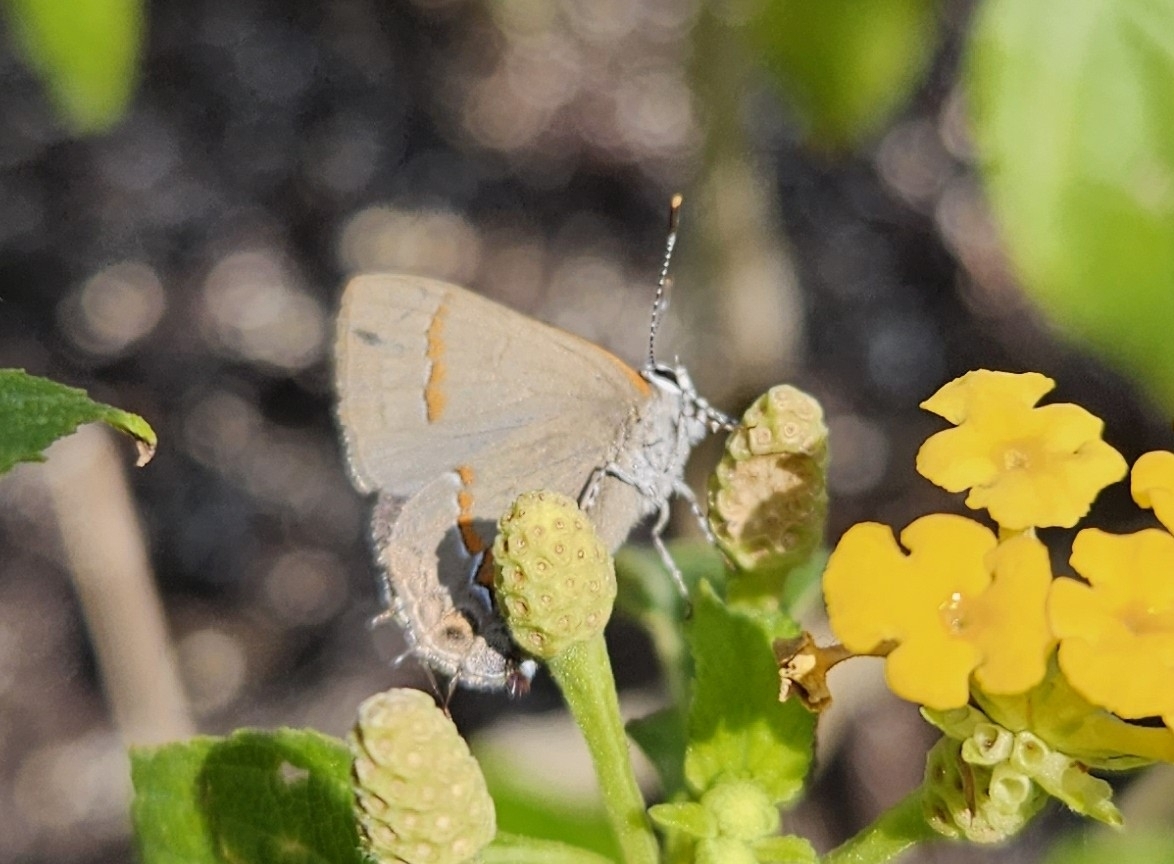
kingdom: Animalia
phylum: Arthropoda
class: Insecta
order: Lepidoptera
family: Lycaenidae
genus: Calycopis
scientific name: Calycopis cecrops
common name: Red-banded hairstreak
